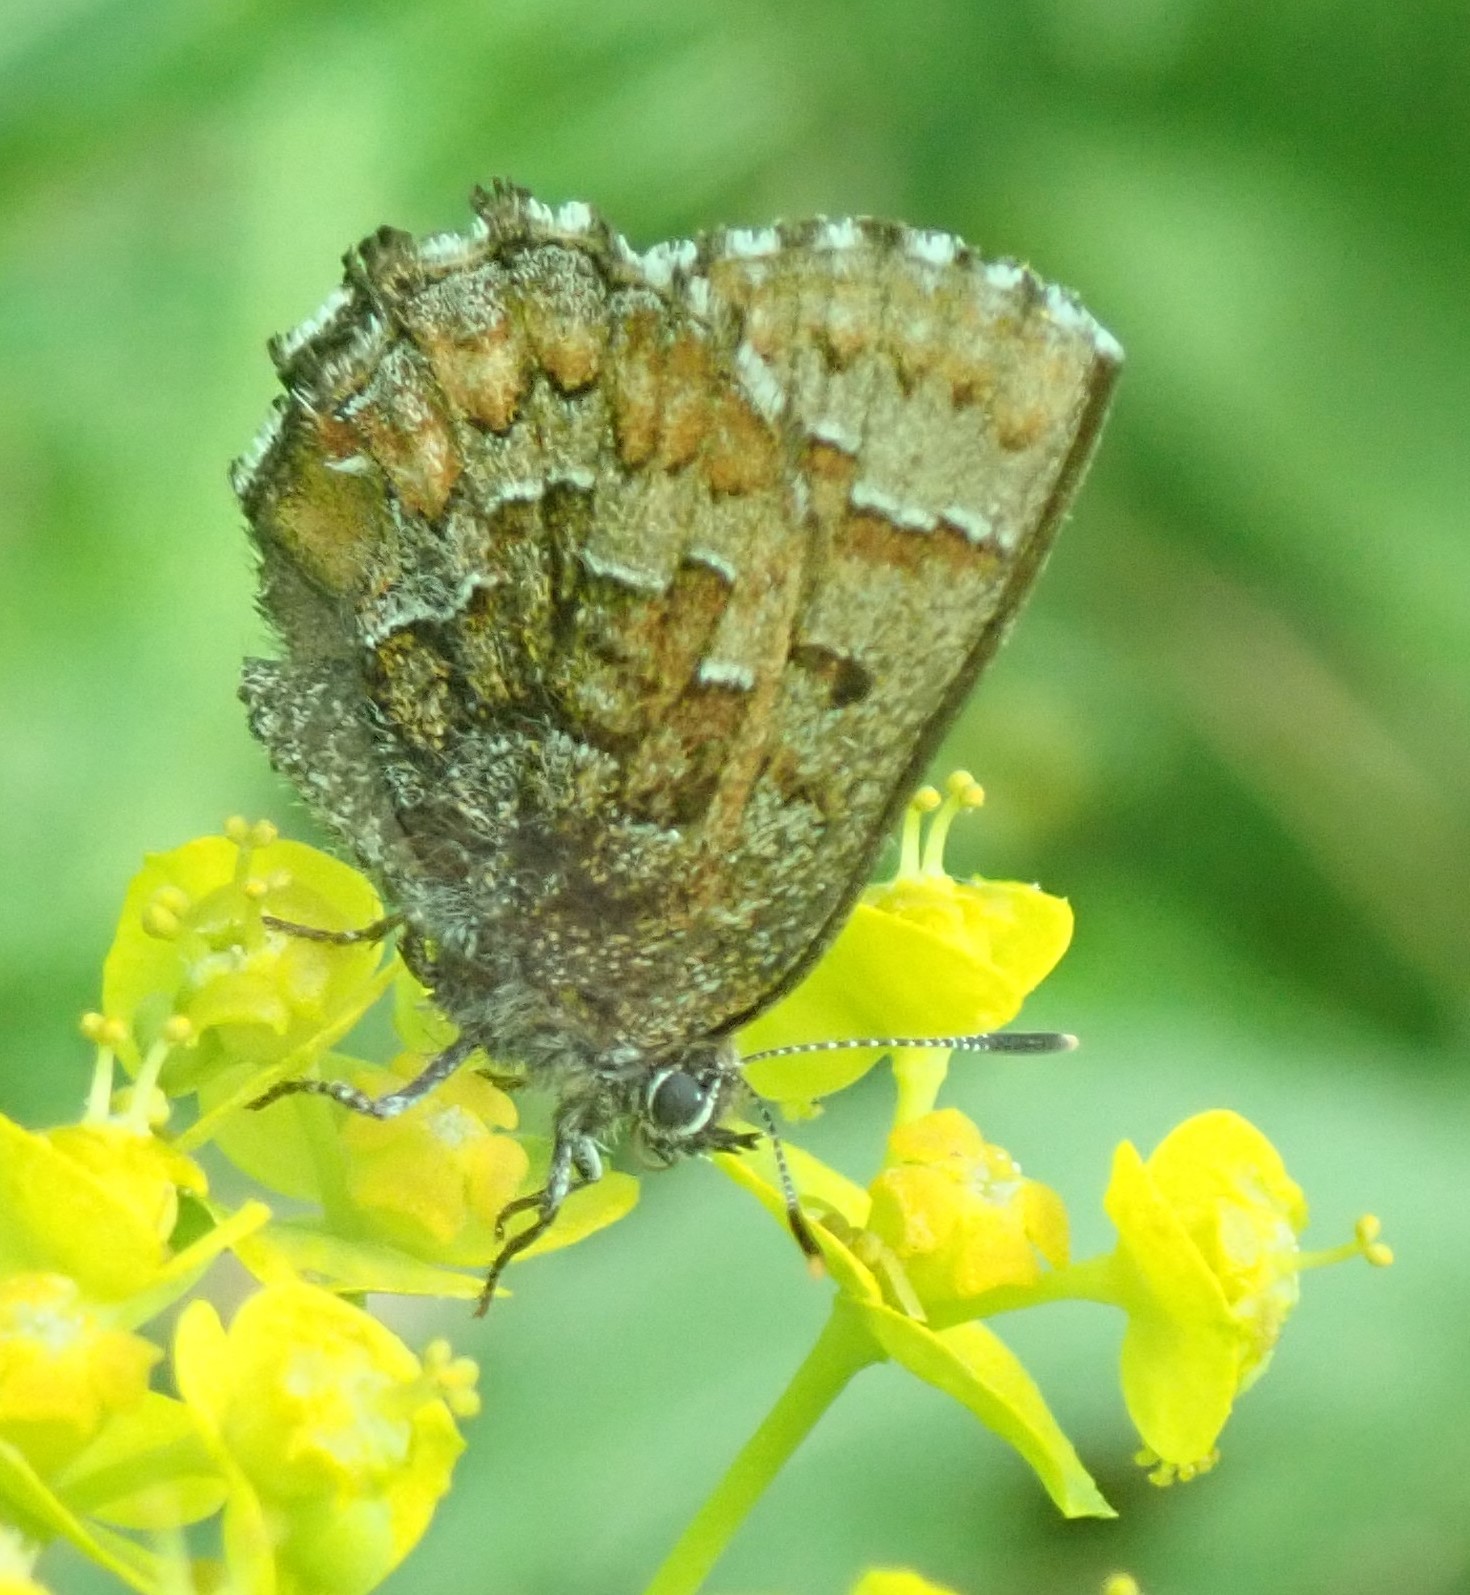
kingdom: Animalia
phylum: Arthropoda
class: Insecta
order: Lepidoptera
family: Lycaenidae
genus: Incisalia
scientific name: Incisalia niphon
